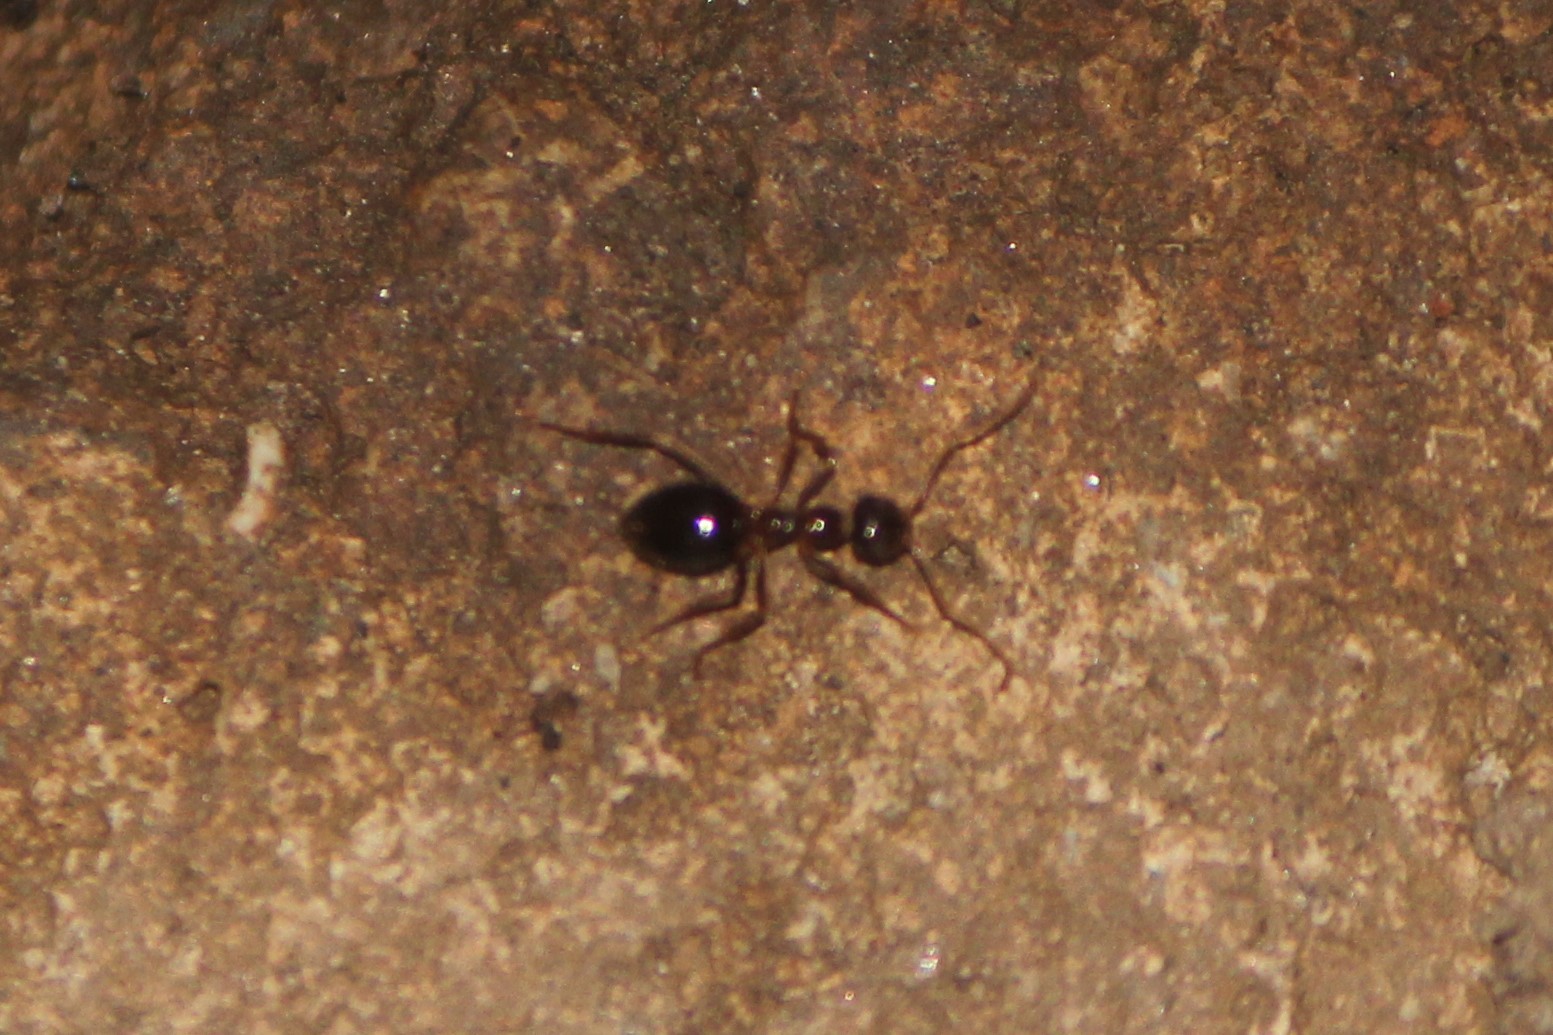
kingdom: Animalia
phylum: Arthropoda
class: Insecta
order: Hymenoptera
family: Formicidae
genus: Prenolepis
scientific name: Prenolepis imparis
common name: Small honey ant
